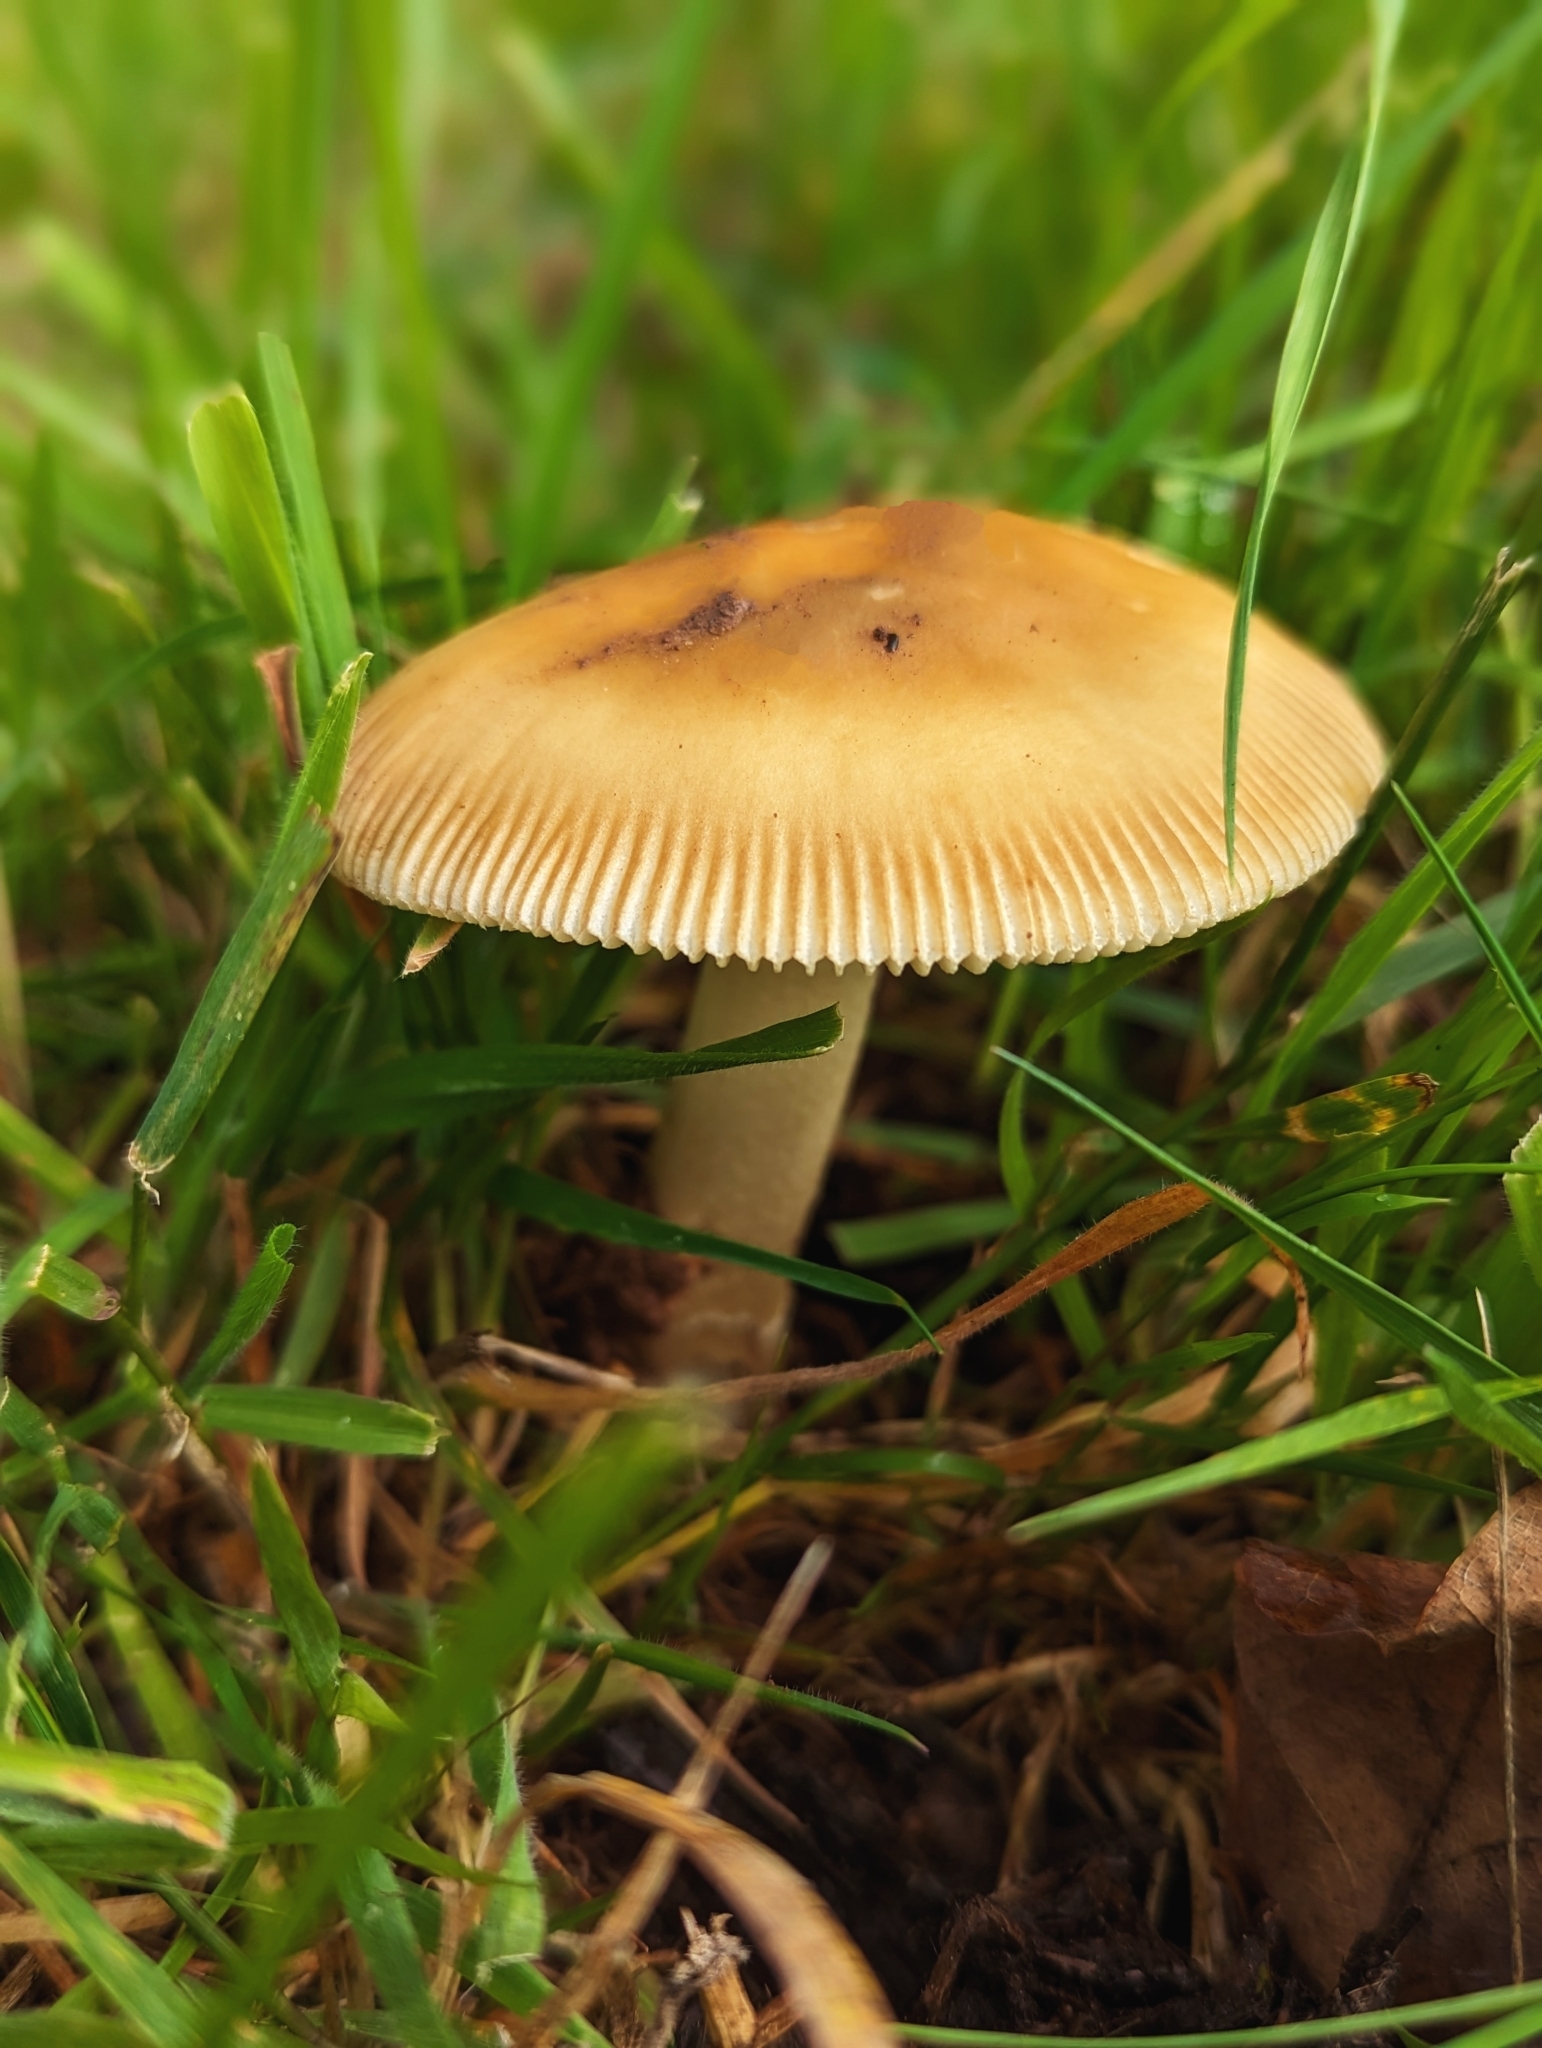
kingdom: Fungi
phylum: Basidiomycota
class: Agaricomycetes
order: Agaricales
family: Amanitaceae
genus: Amanita
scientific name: Amanita fulva
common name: Tawny grisette
